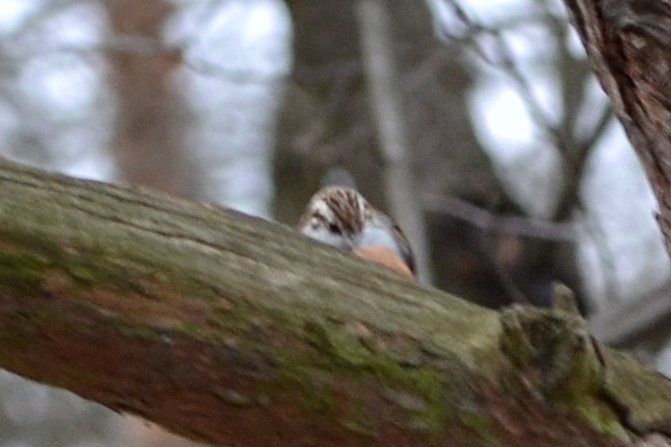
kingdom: Animalia
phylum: Chordata
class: Aves
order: Passeriformes
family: Certhiidae
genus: Certhia
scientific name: Certhia familiaris
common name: Eurasian treecreeper
